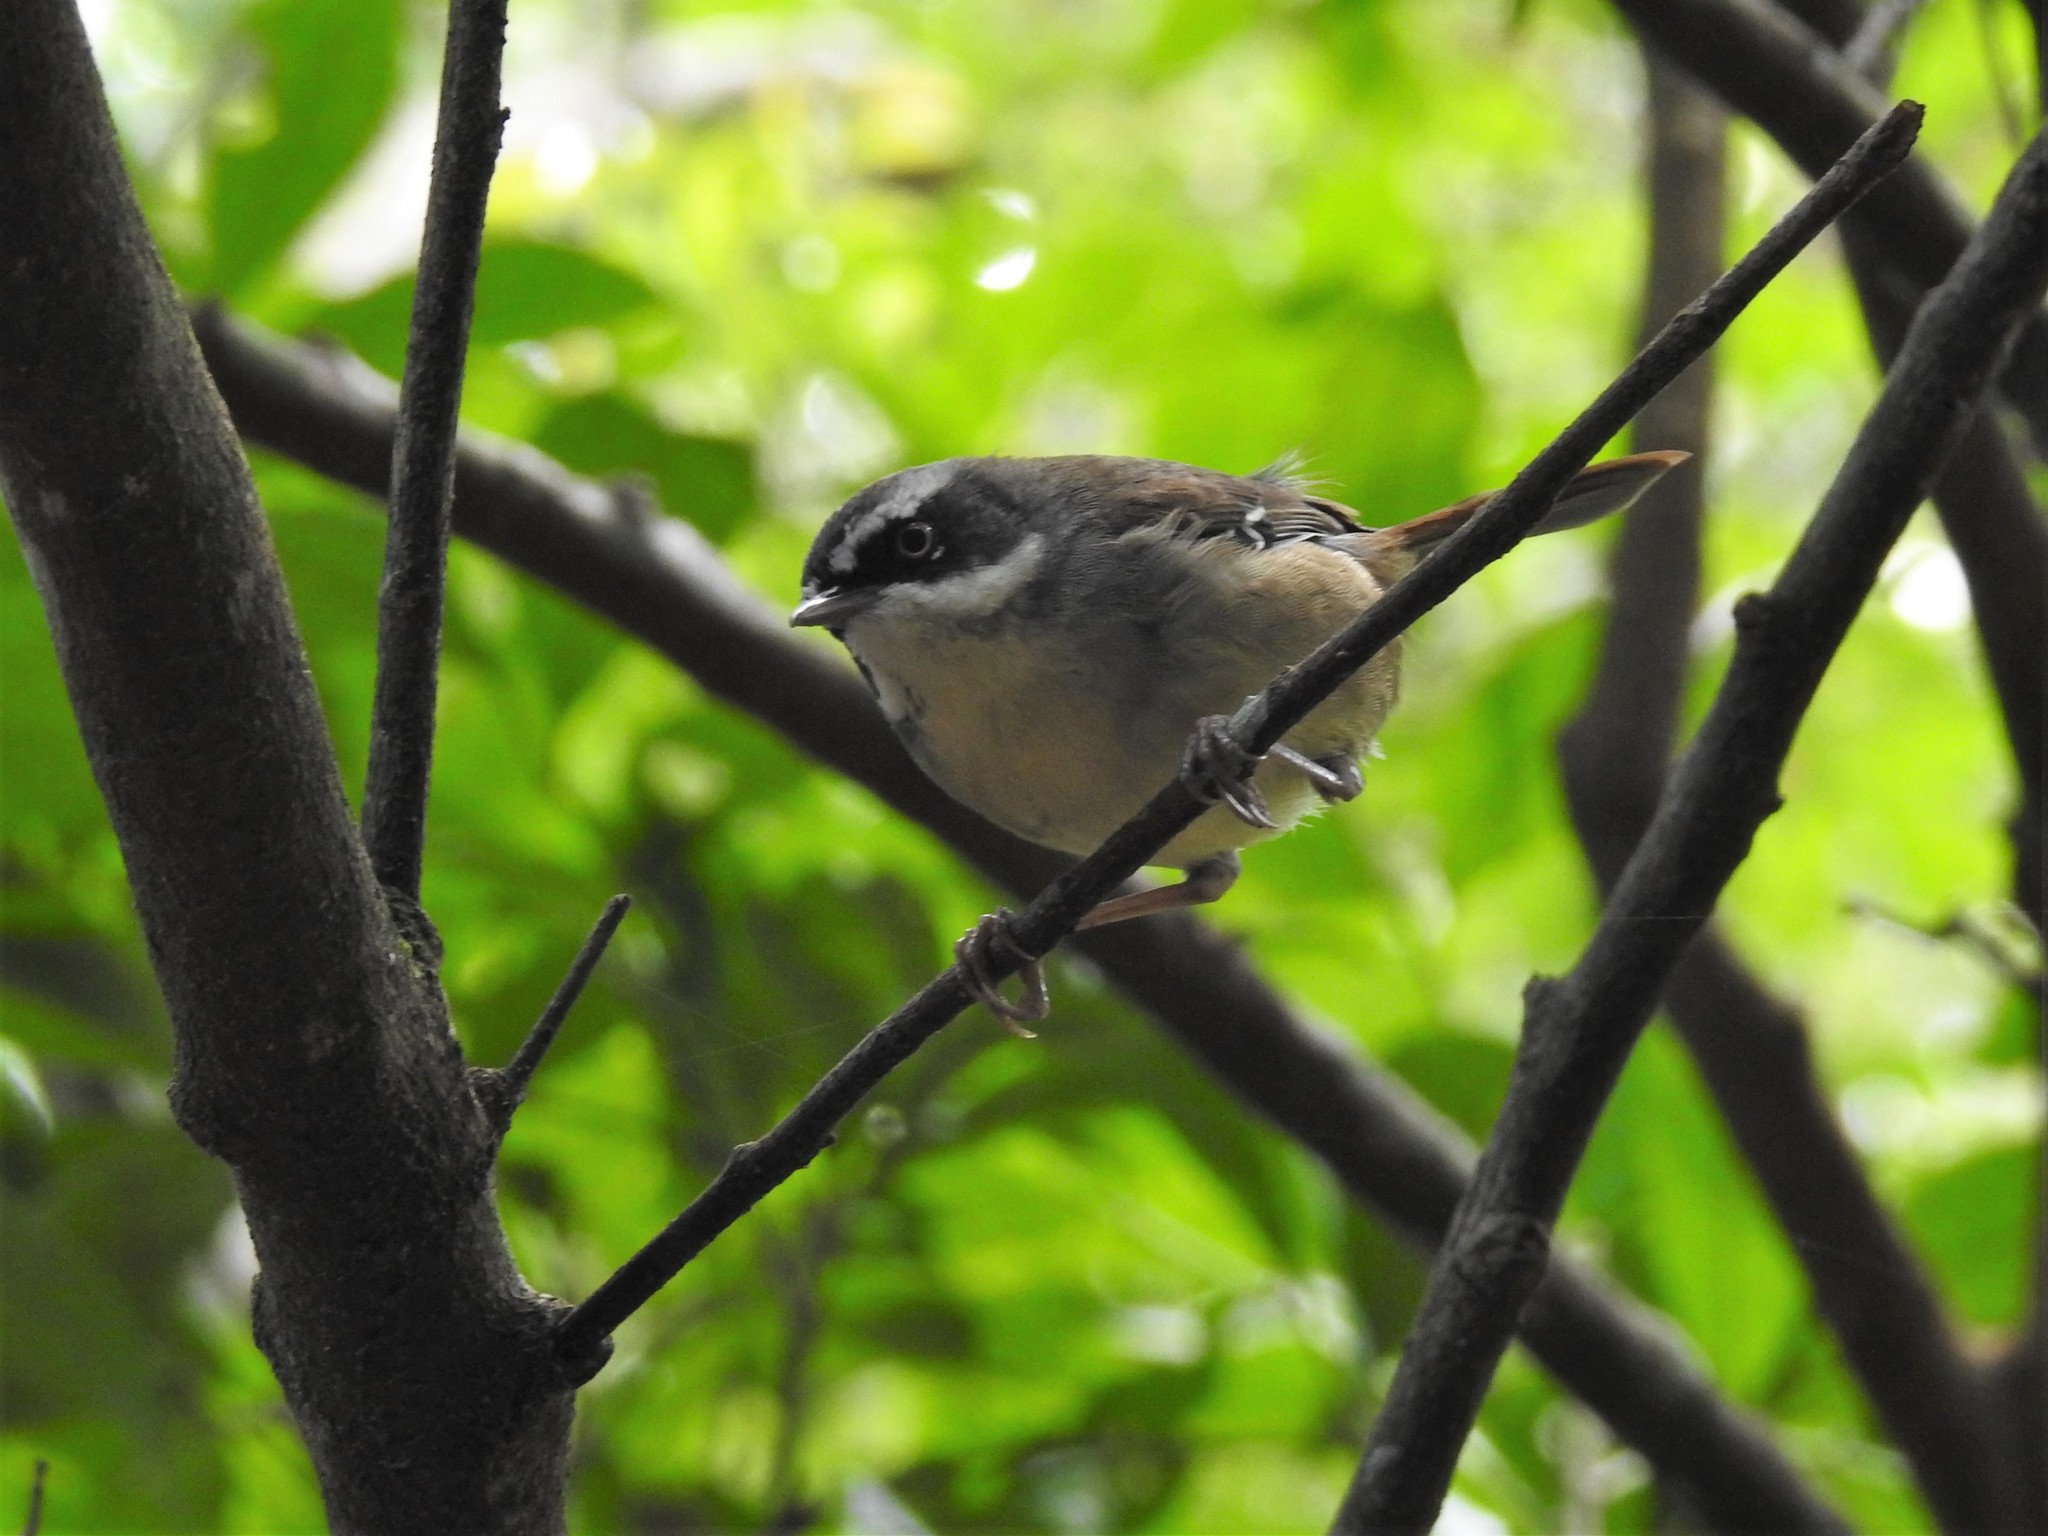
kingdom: Animalia
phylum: Chordata
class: Aves
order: Passeriformes
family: Acanthizidae
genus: Sericornis
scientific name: Sericornis frontalis
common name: White-browed scrubwren
